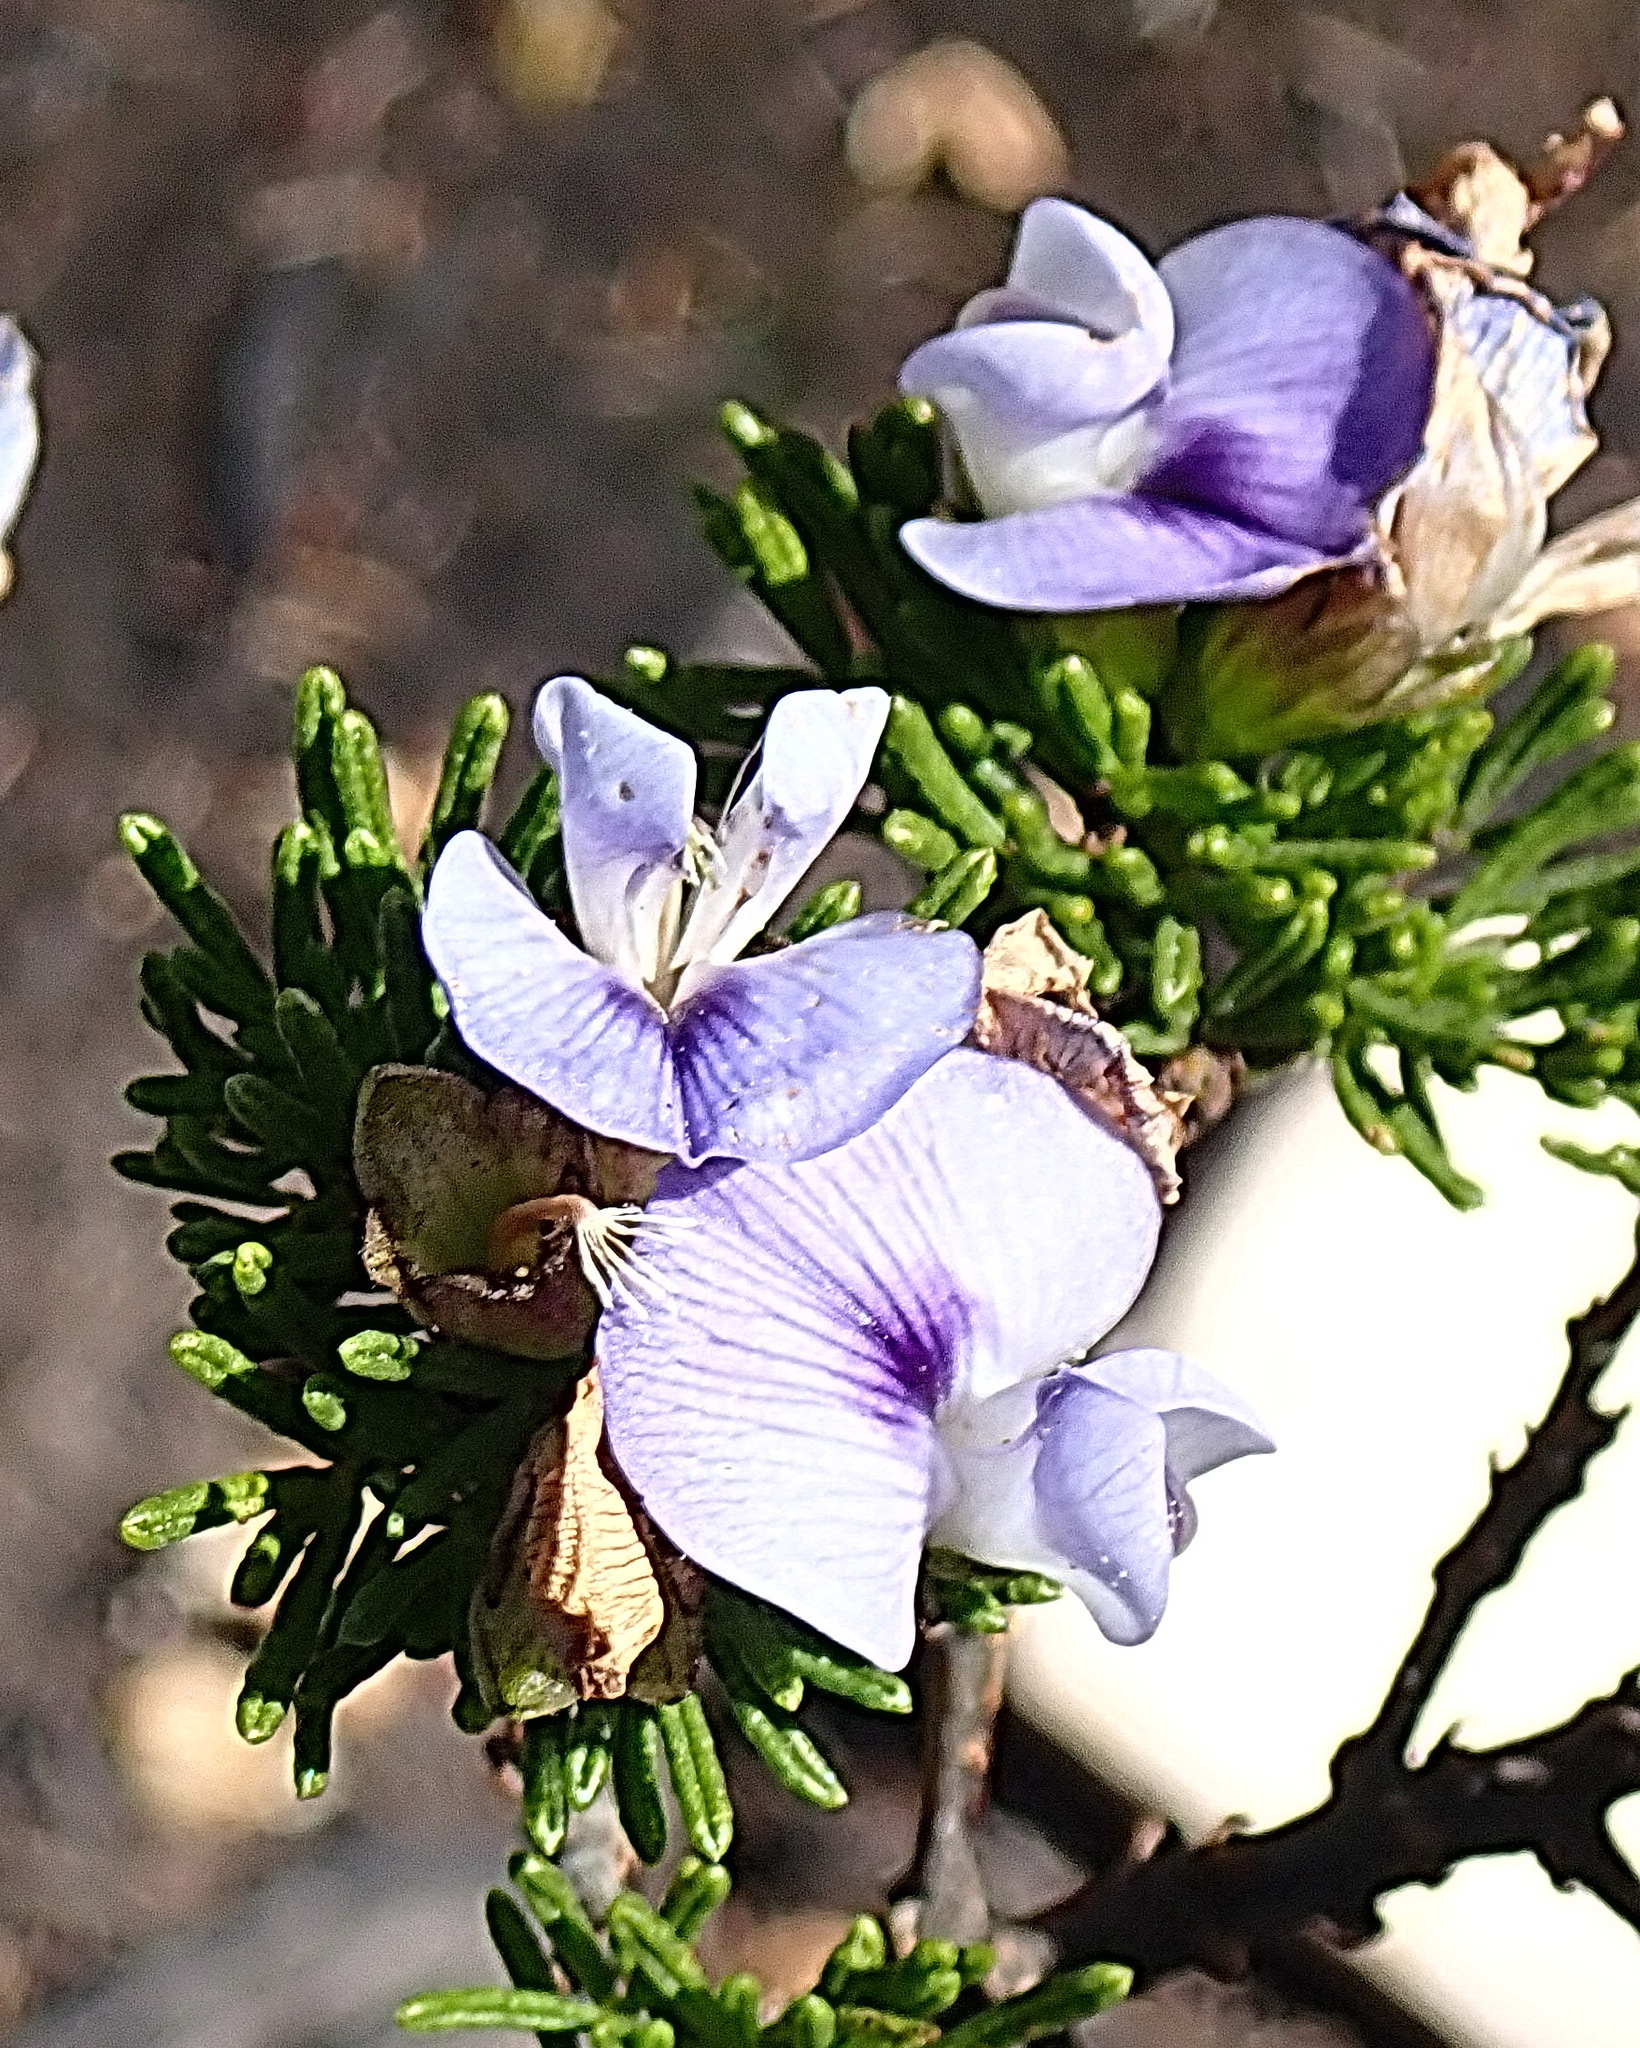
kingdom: Plantae
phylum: Tracheophyta
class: Magnoliopsida
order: Fabales
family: Fabaceae
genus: Psoralea
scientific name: Psoralea vanberkelae
